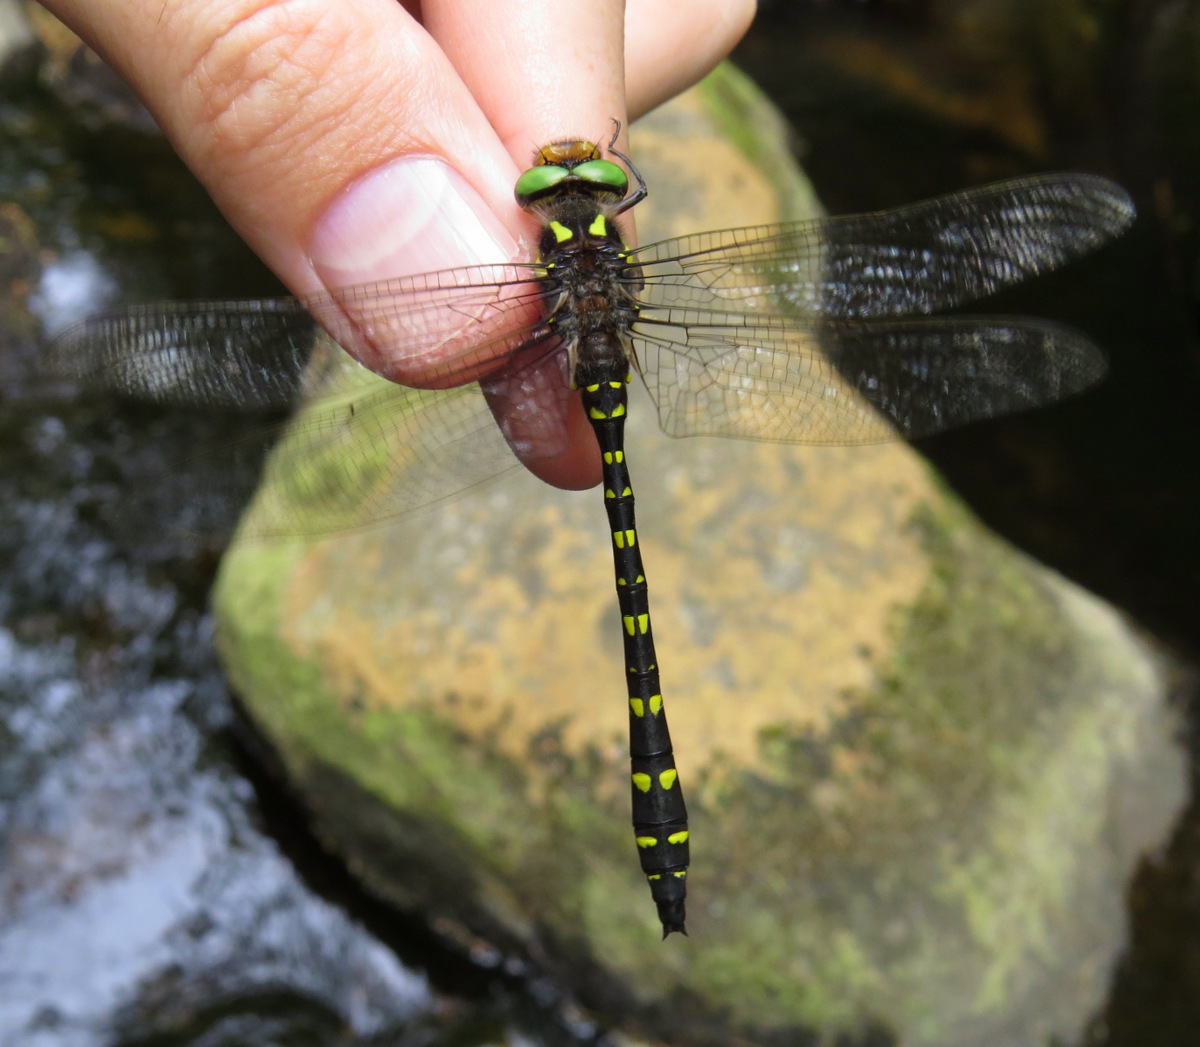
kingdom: Animalia
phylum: Arthropoda
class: Insecta
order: Odonata
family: Cordulegastridae
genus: Cordulegaster
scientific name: Cordulegaster maculata
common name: Twin-spotted spiketail
